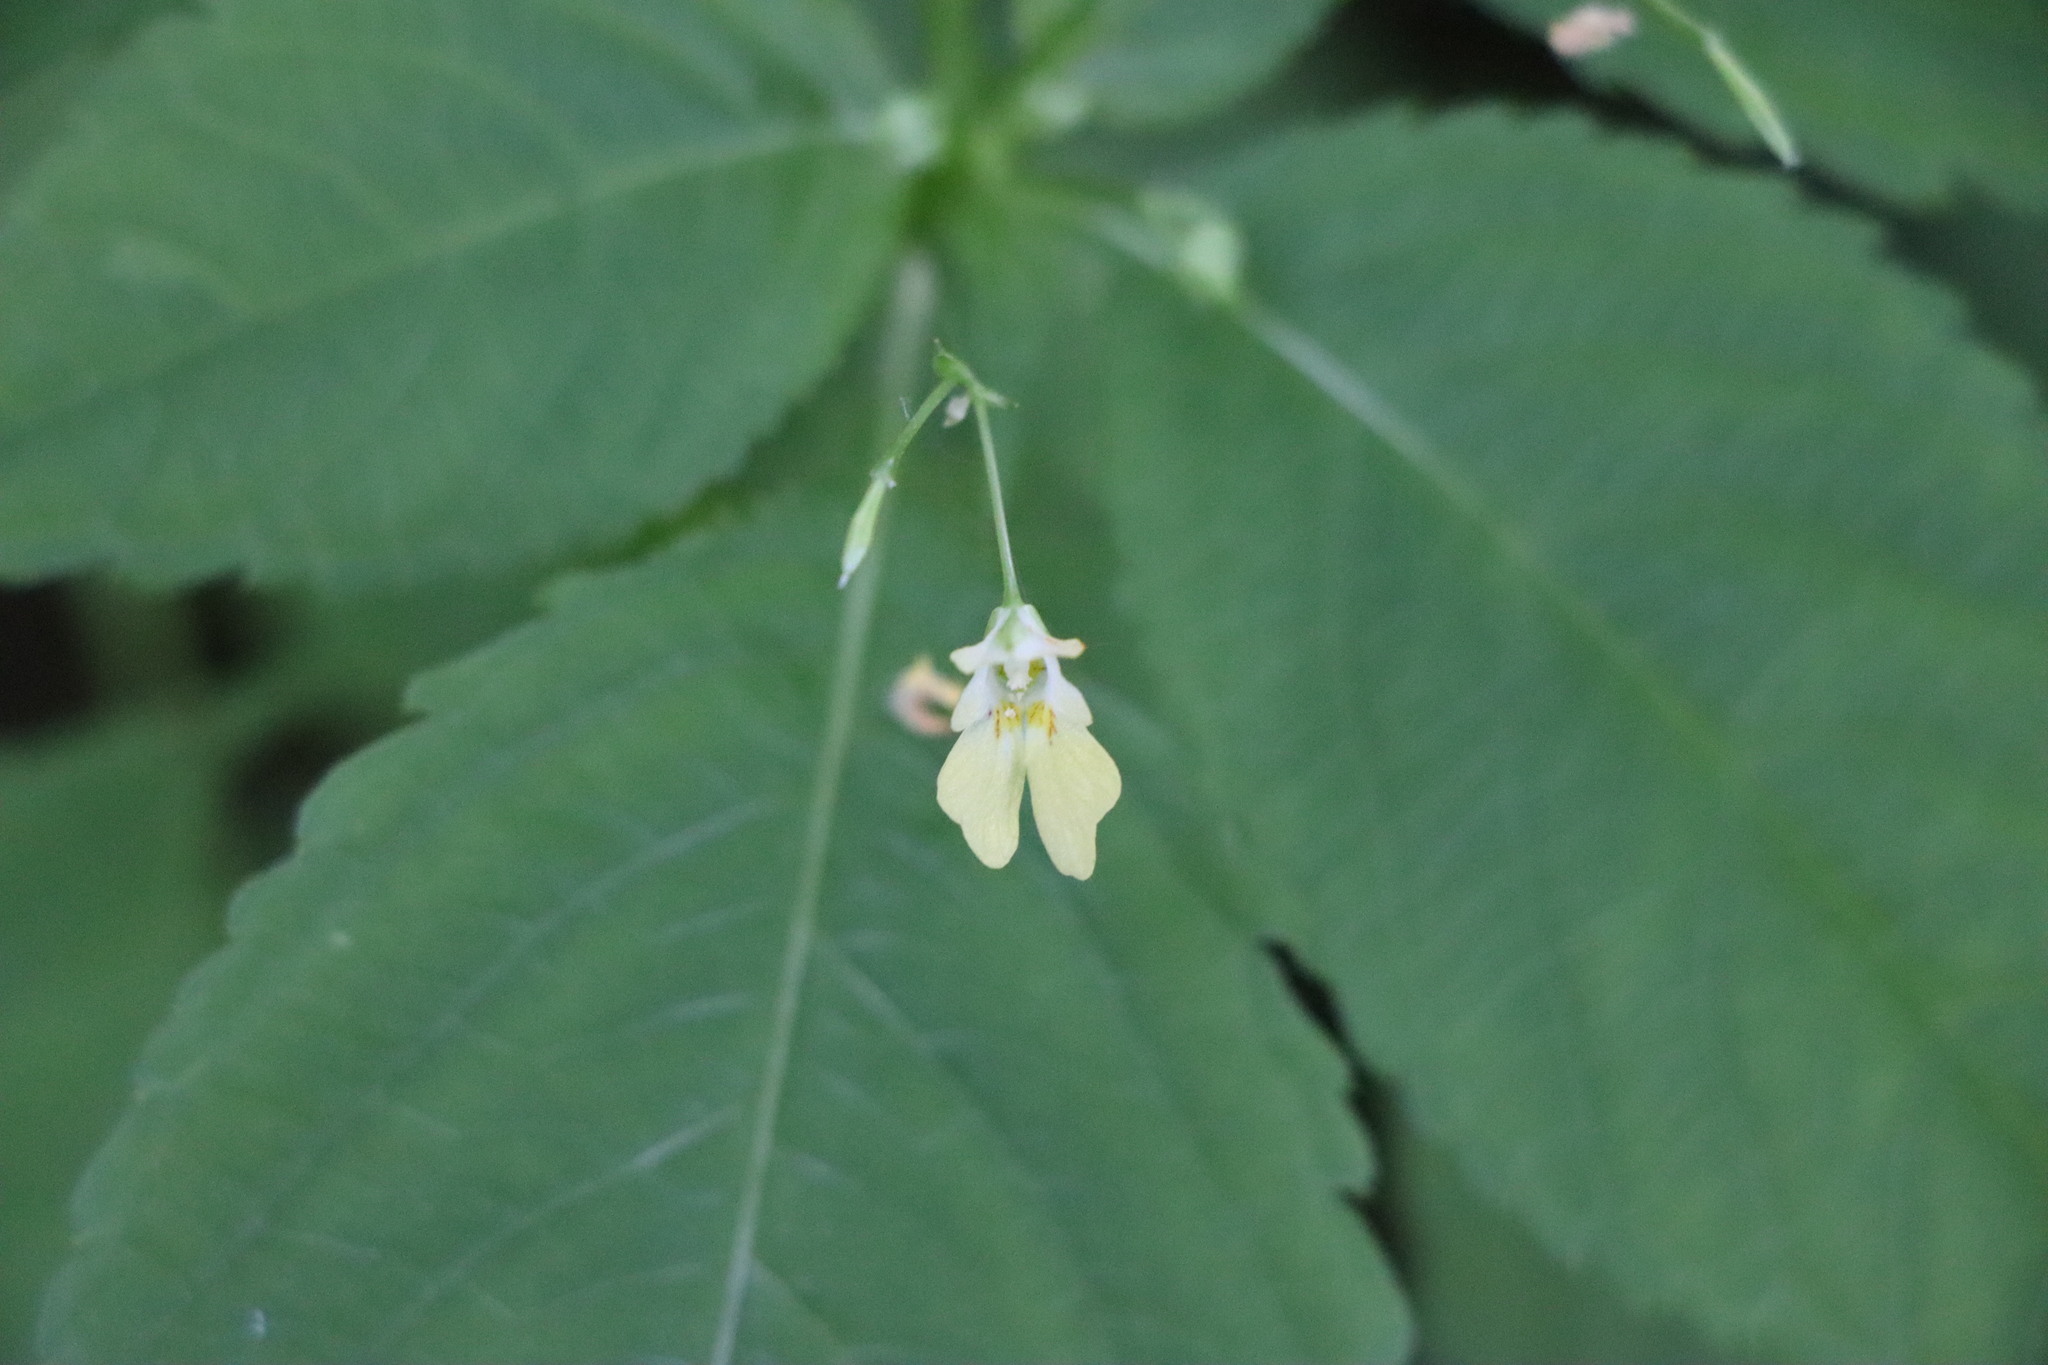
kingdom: Plantae
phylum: Tracheophyta
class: Magnoliopsida
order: Ericales
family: Balsaminaceae
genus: Impatiens
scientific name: Impatiens parviflora
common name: Small balsam
